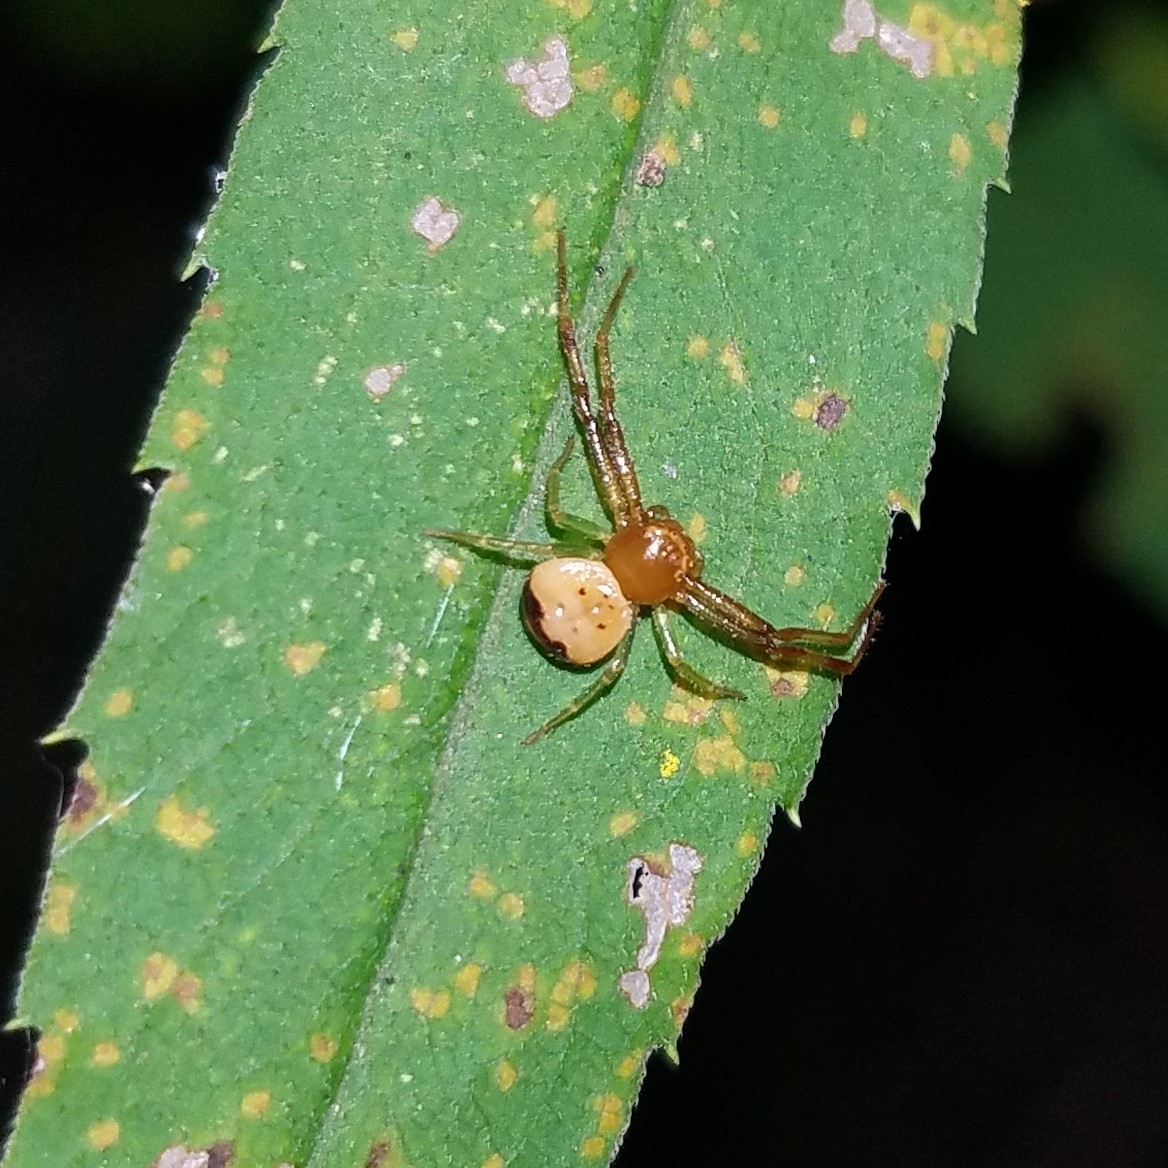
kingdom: Animalia
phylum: Arthropoda
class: Arachnida
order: Araneae
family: Thomisidae
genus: Synema
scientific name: Synema parvulum
